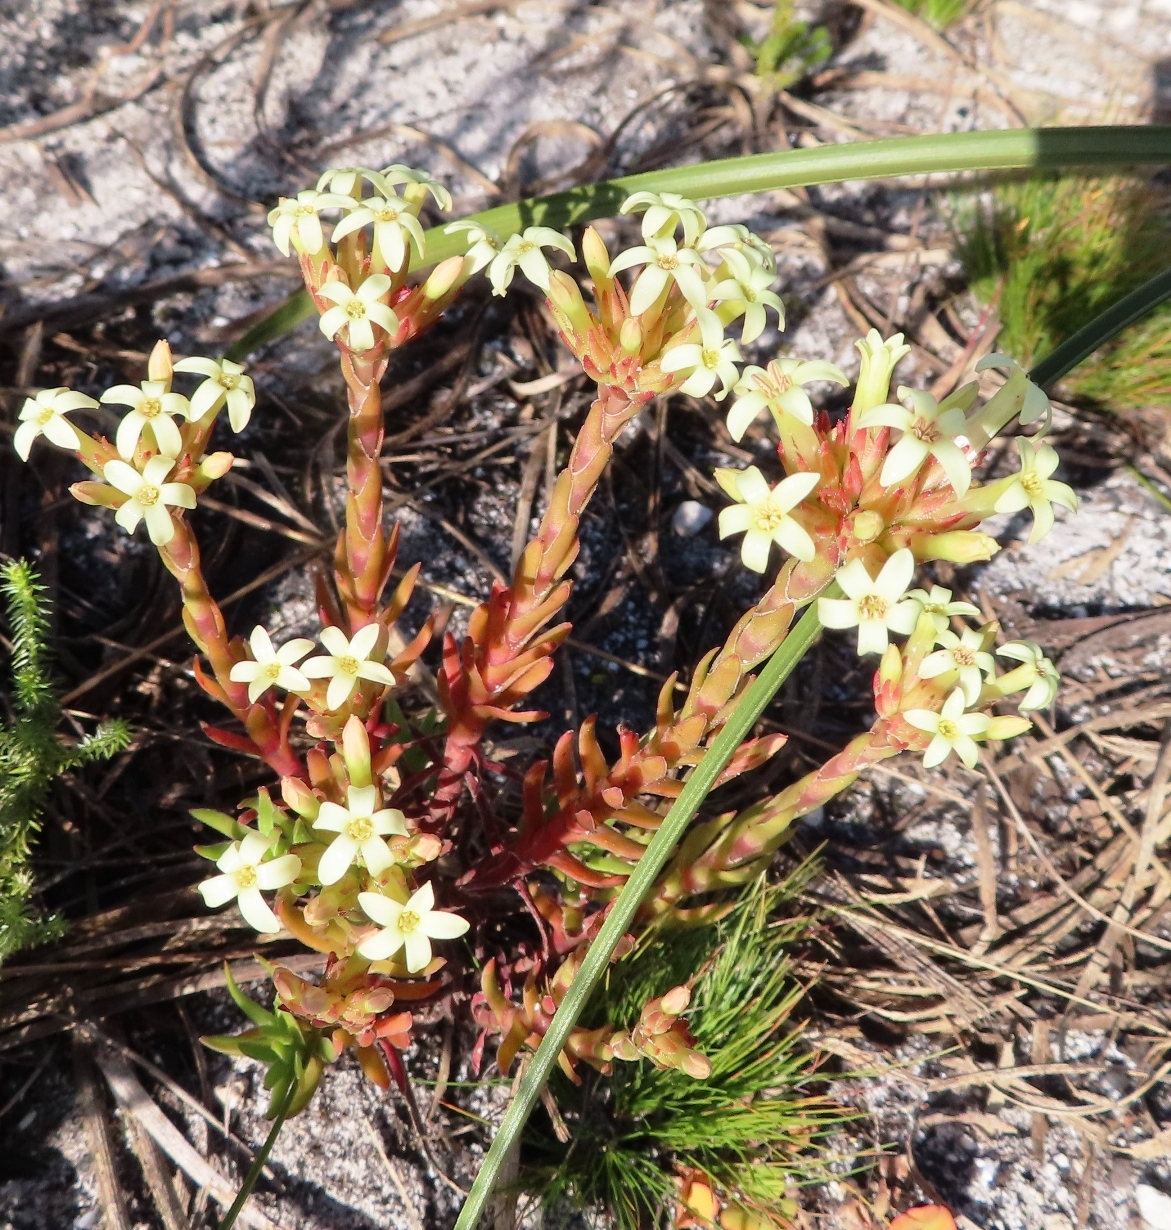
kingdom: Plantae
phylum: Tracheophyta
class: Magnoliopsida
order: Saxifragales
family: Crassulaceae
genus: Crassula
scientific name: Crassula fascicularis
